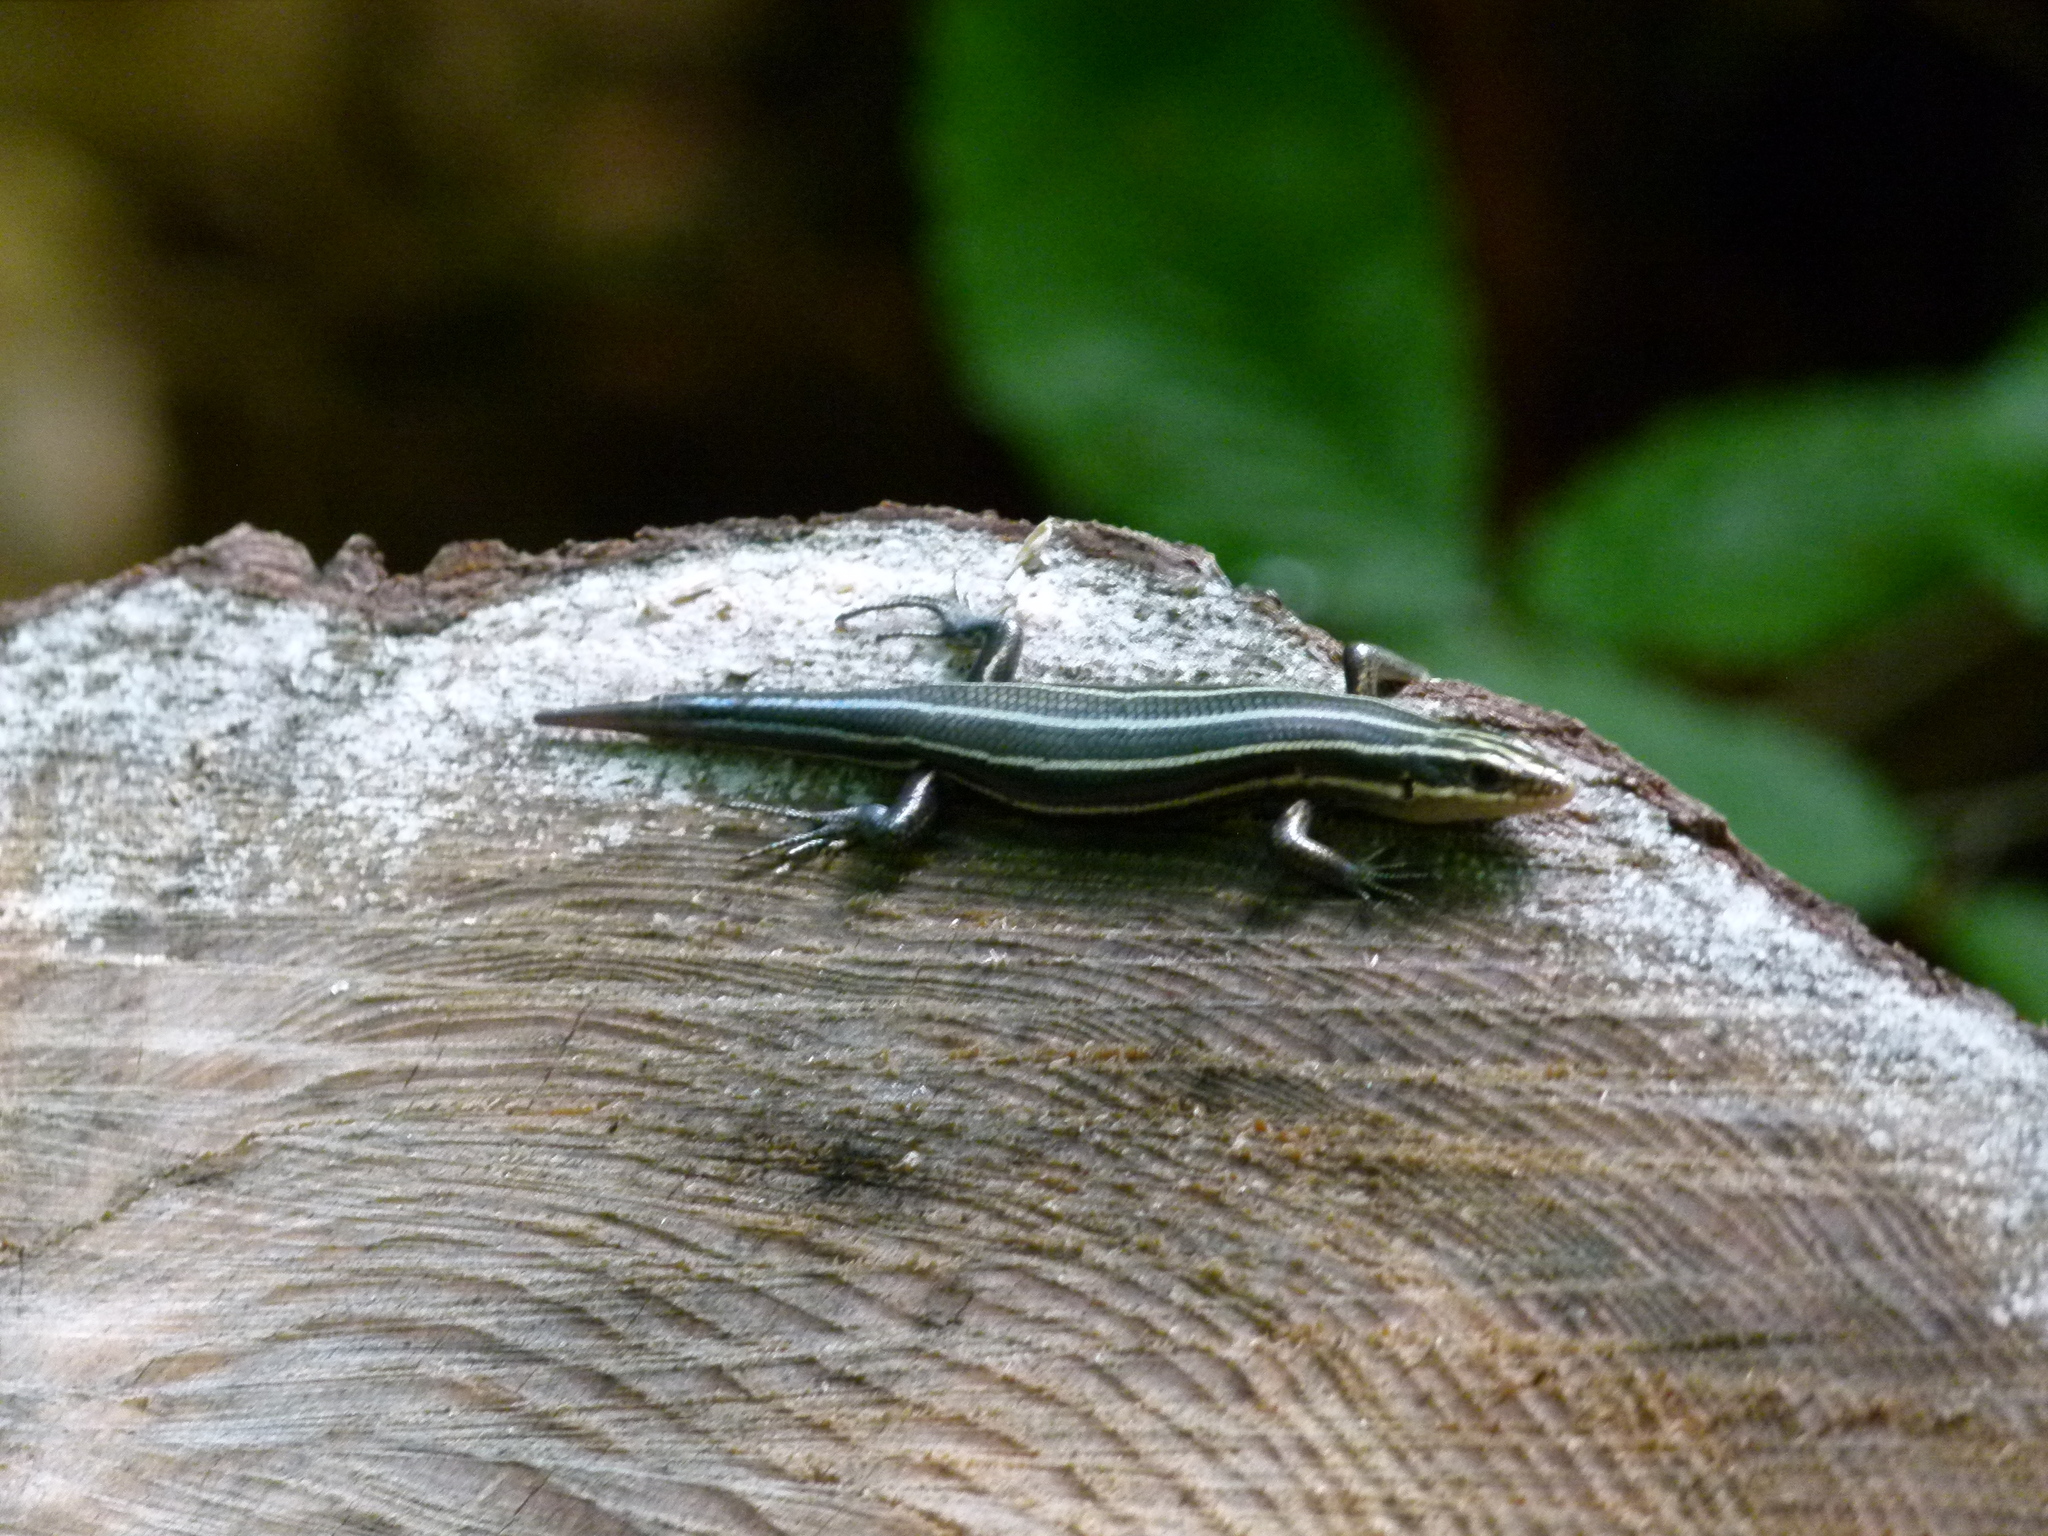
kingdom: Animalia
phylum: Chordata
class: Squamata
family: Scincidae
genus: Plestiodon
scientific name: Plestiodon fasciatus
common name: Five-lined skink
